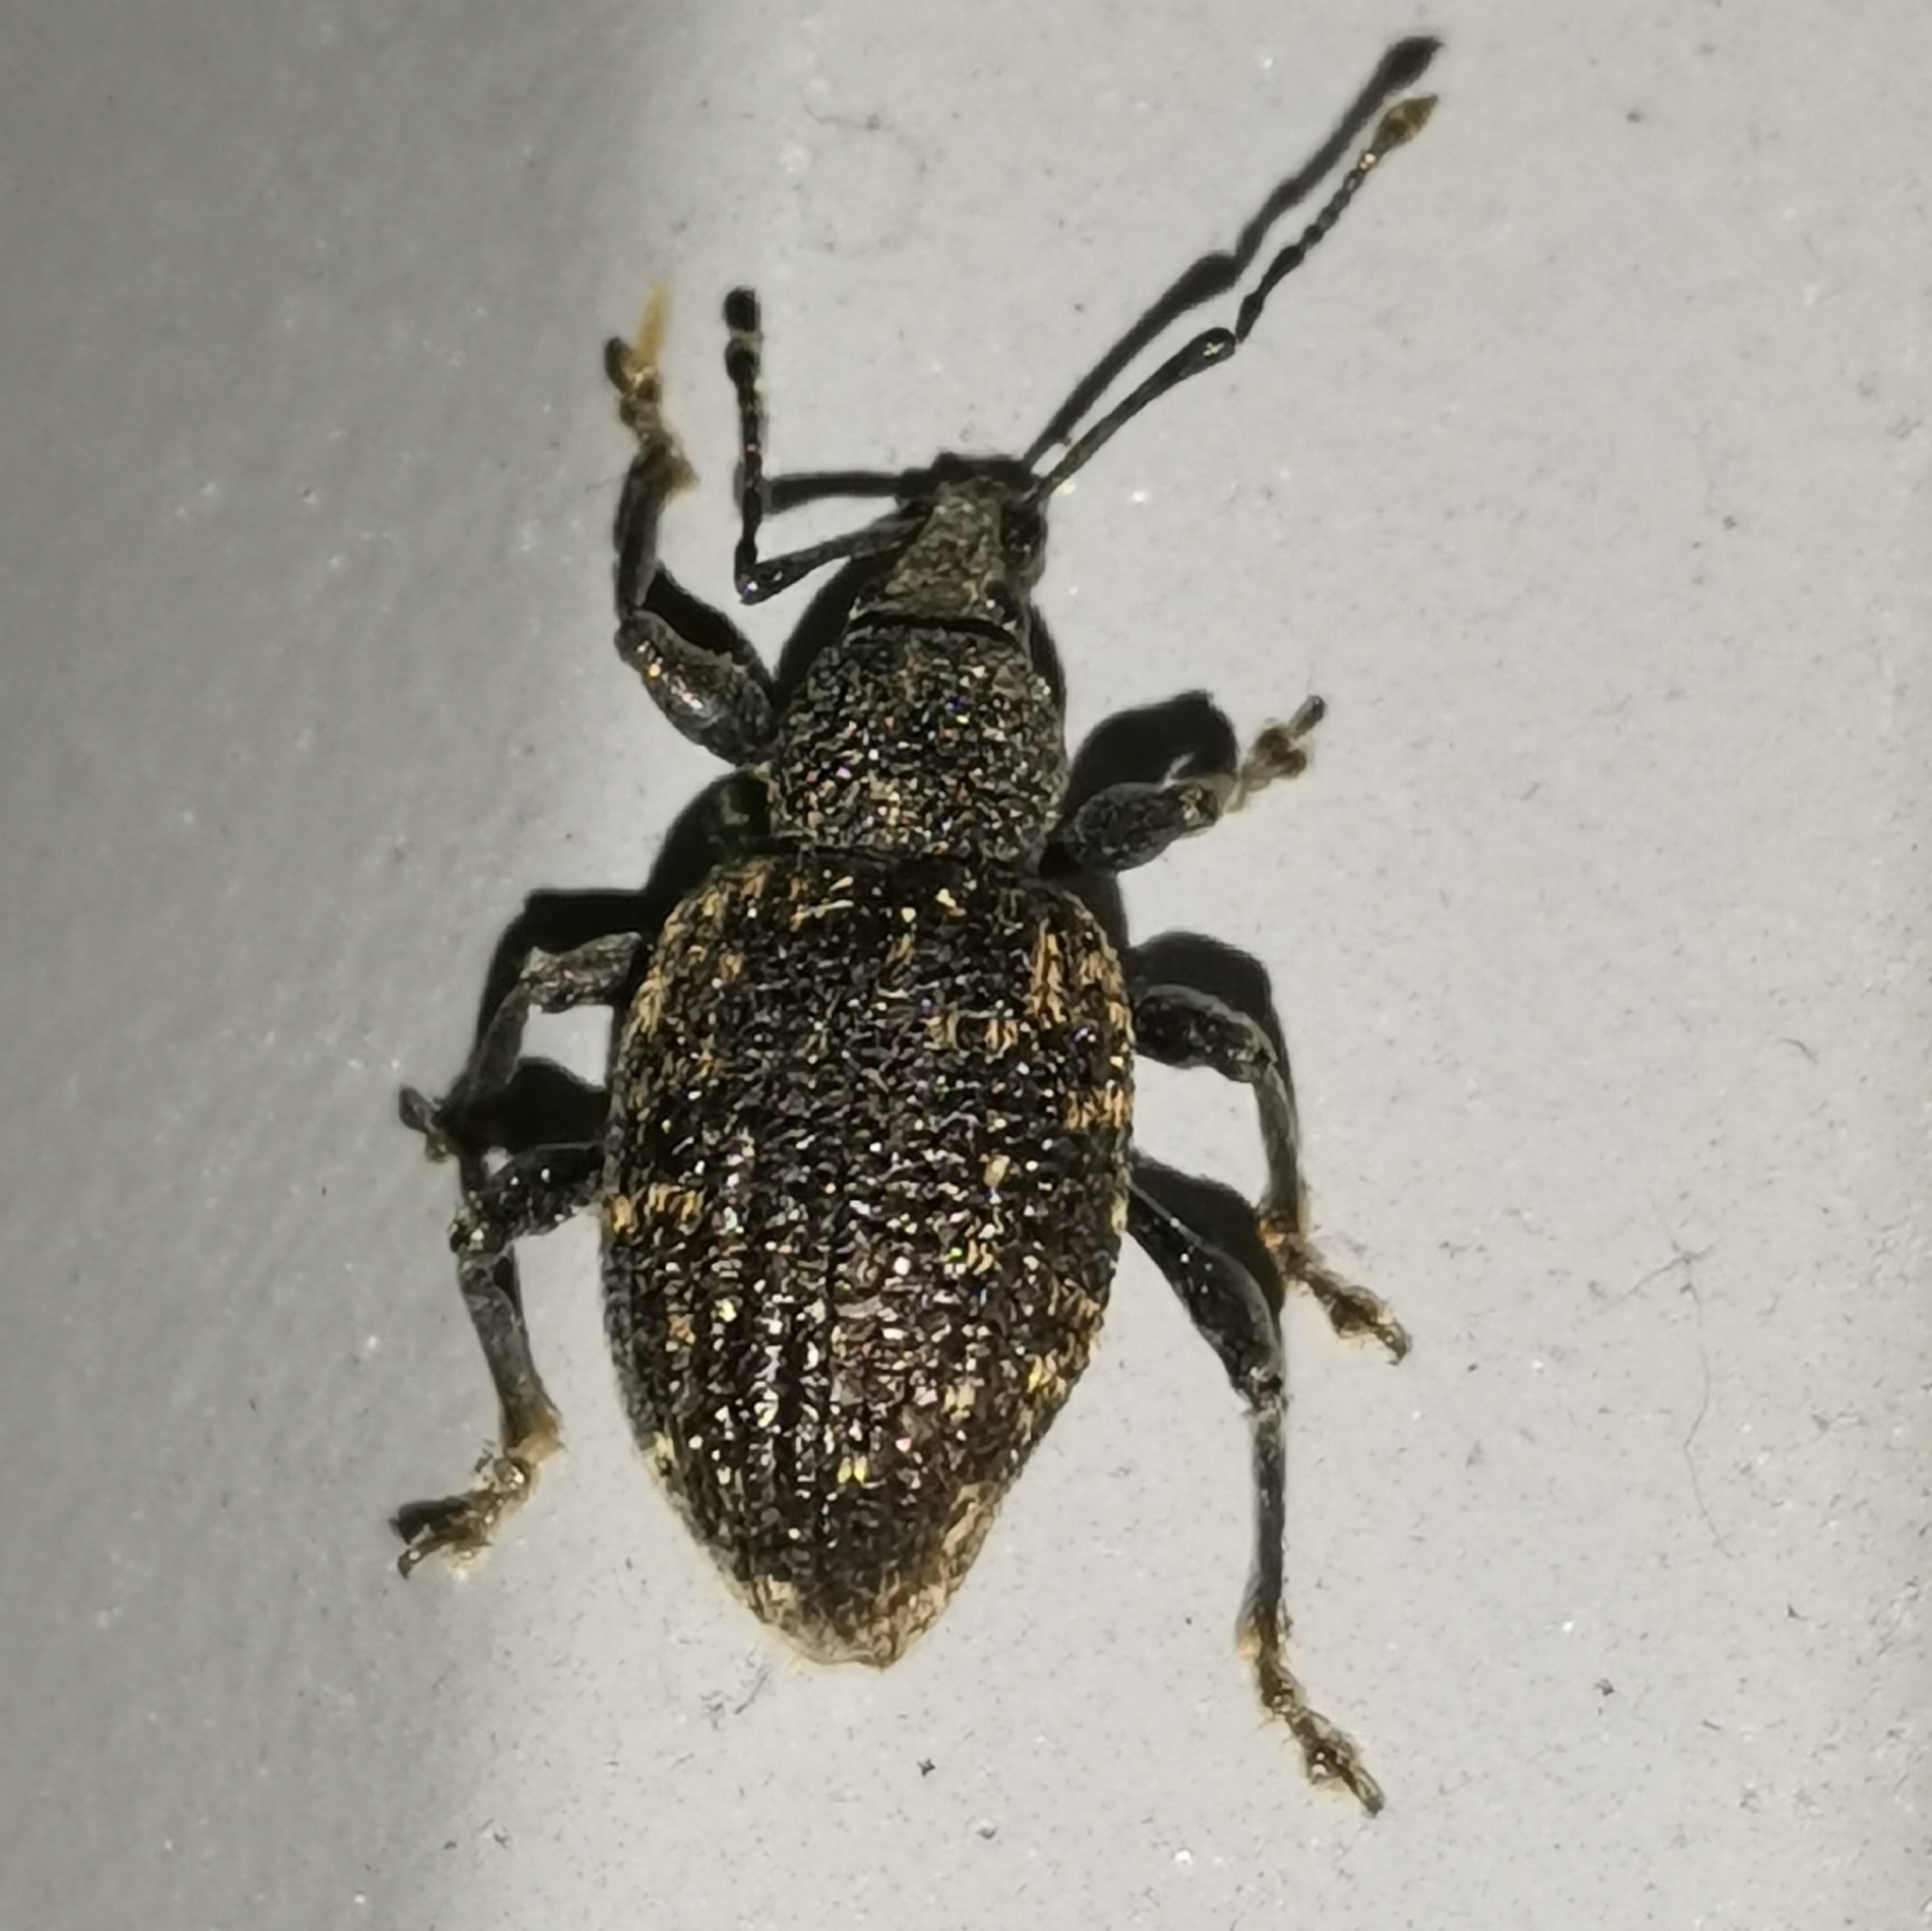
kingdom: Animalia
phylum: Arthropoda
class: Insecta
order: Coleoptera
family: Curculionidae
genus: Otiorhynchus
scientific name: Otiorhynchus sulcatus
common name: Black vine weevil
